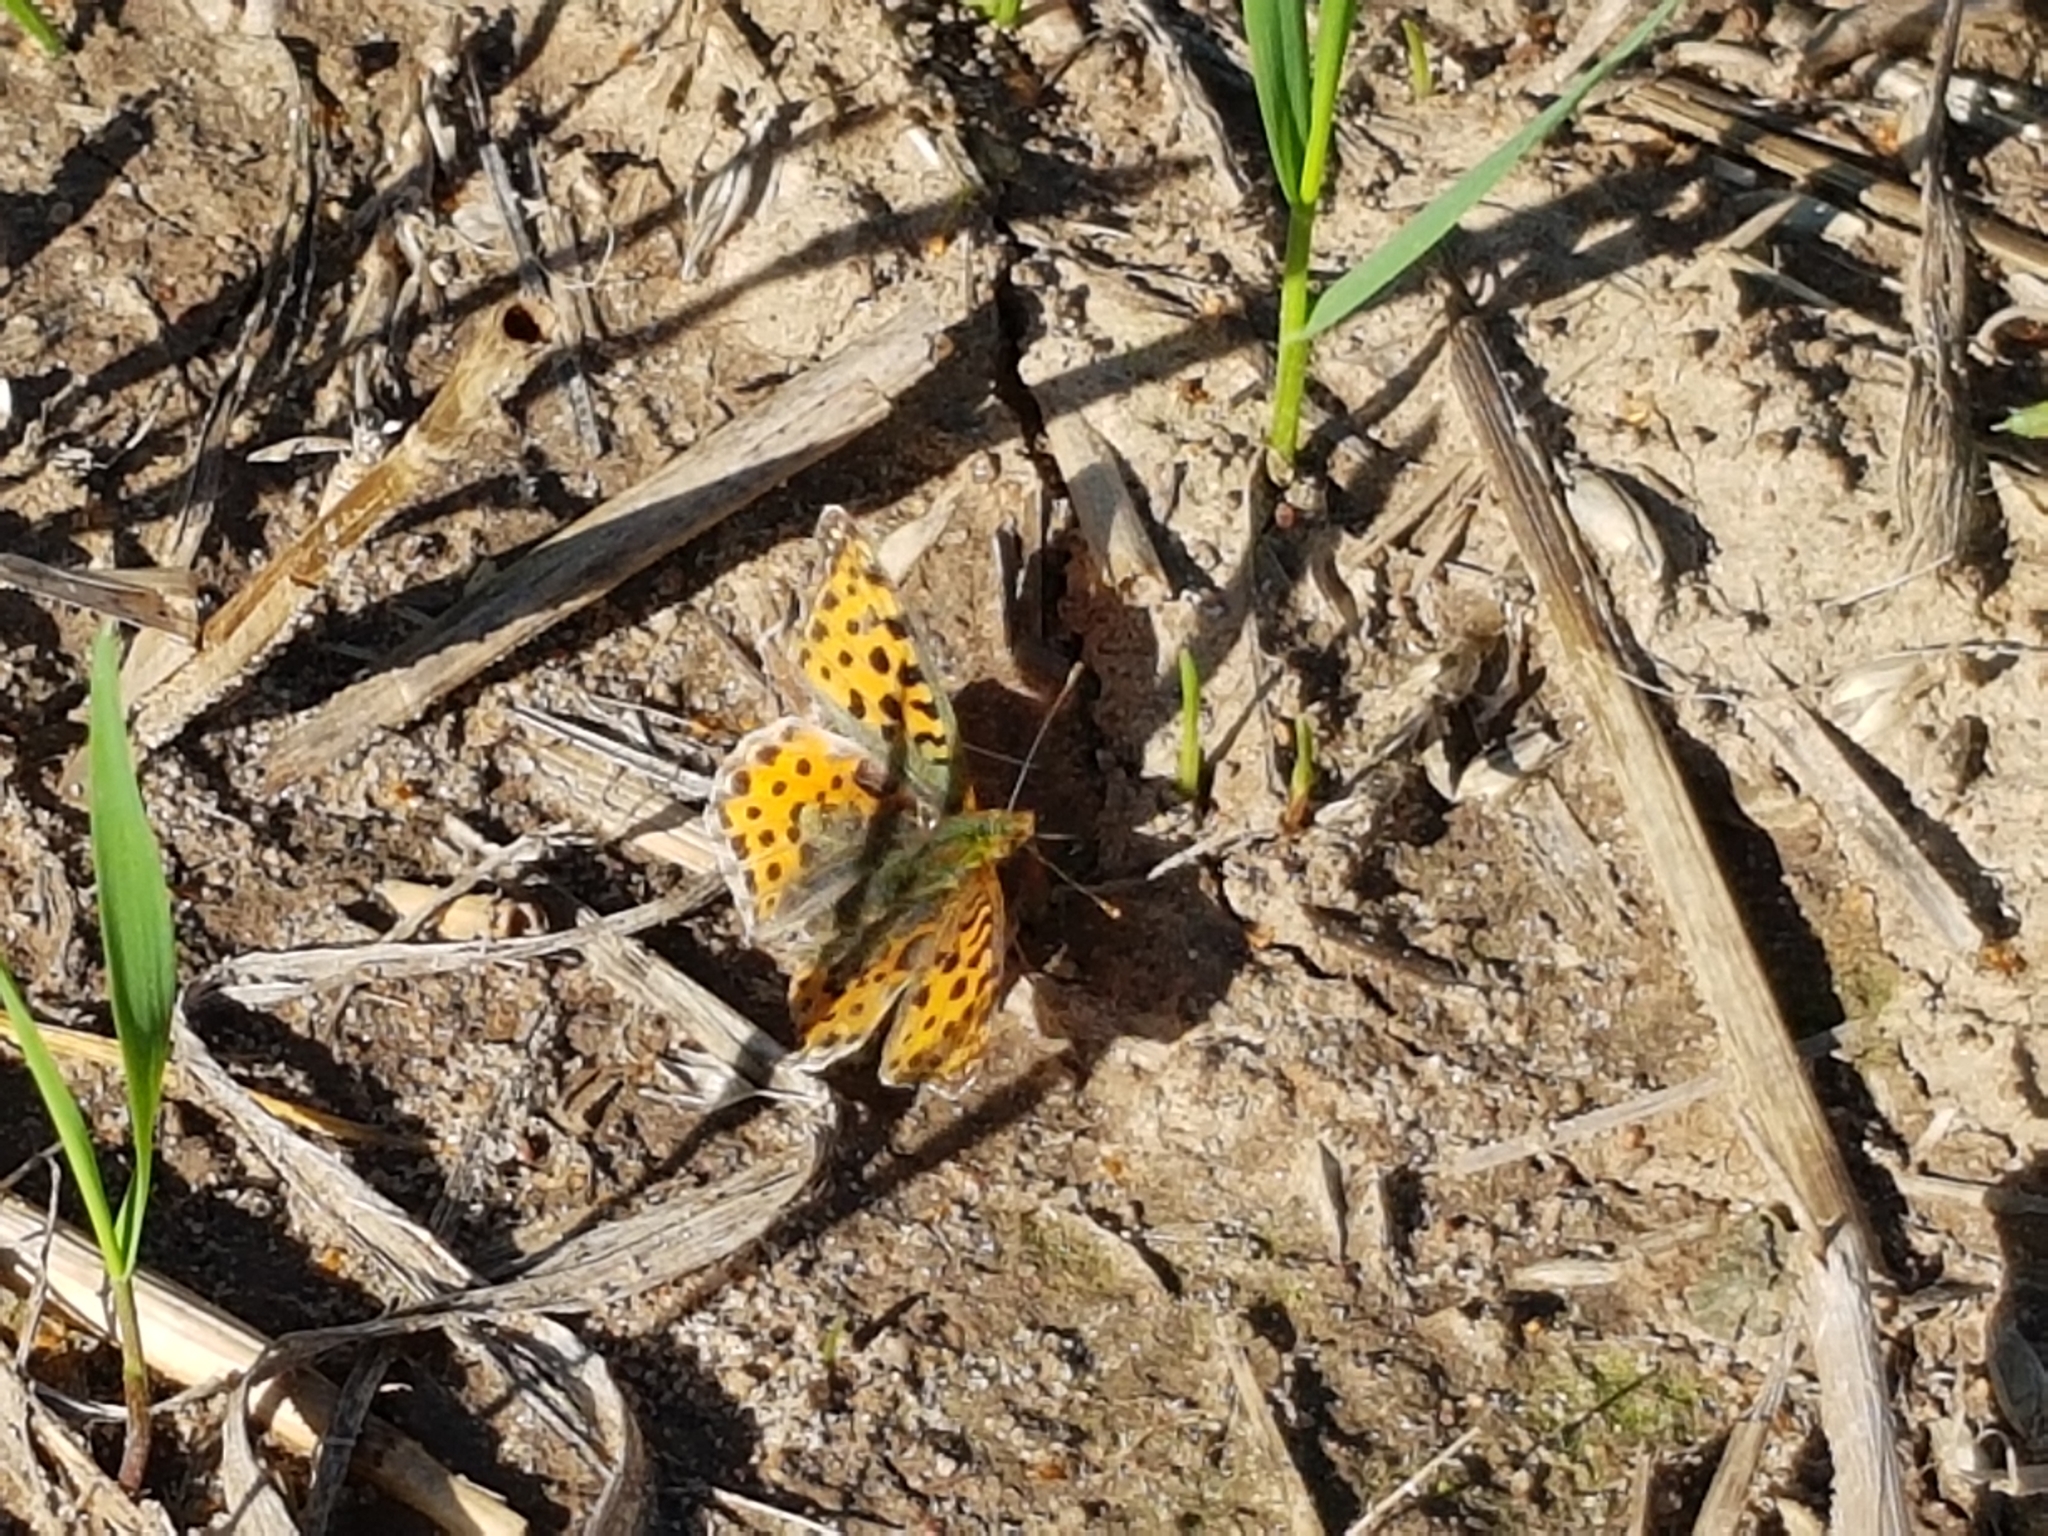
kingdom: Animalia
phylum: Arthropoda
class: Insecta
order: Lepidoptera
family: Nymphalidae
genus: Issoria
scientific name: Issoria lathonia
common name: Queen of spain fritillary
